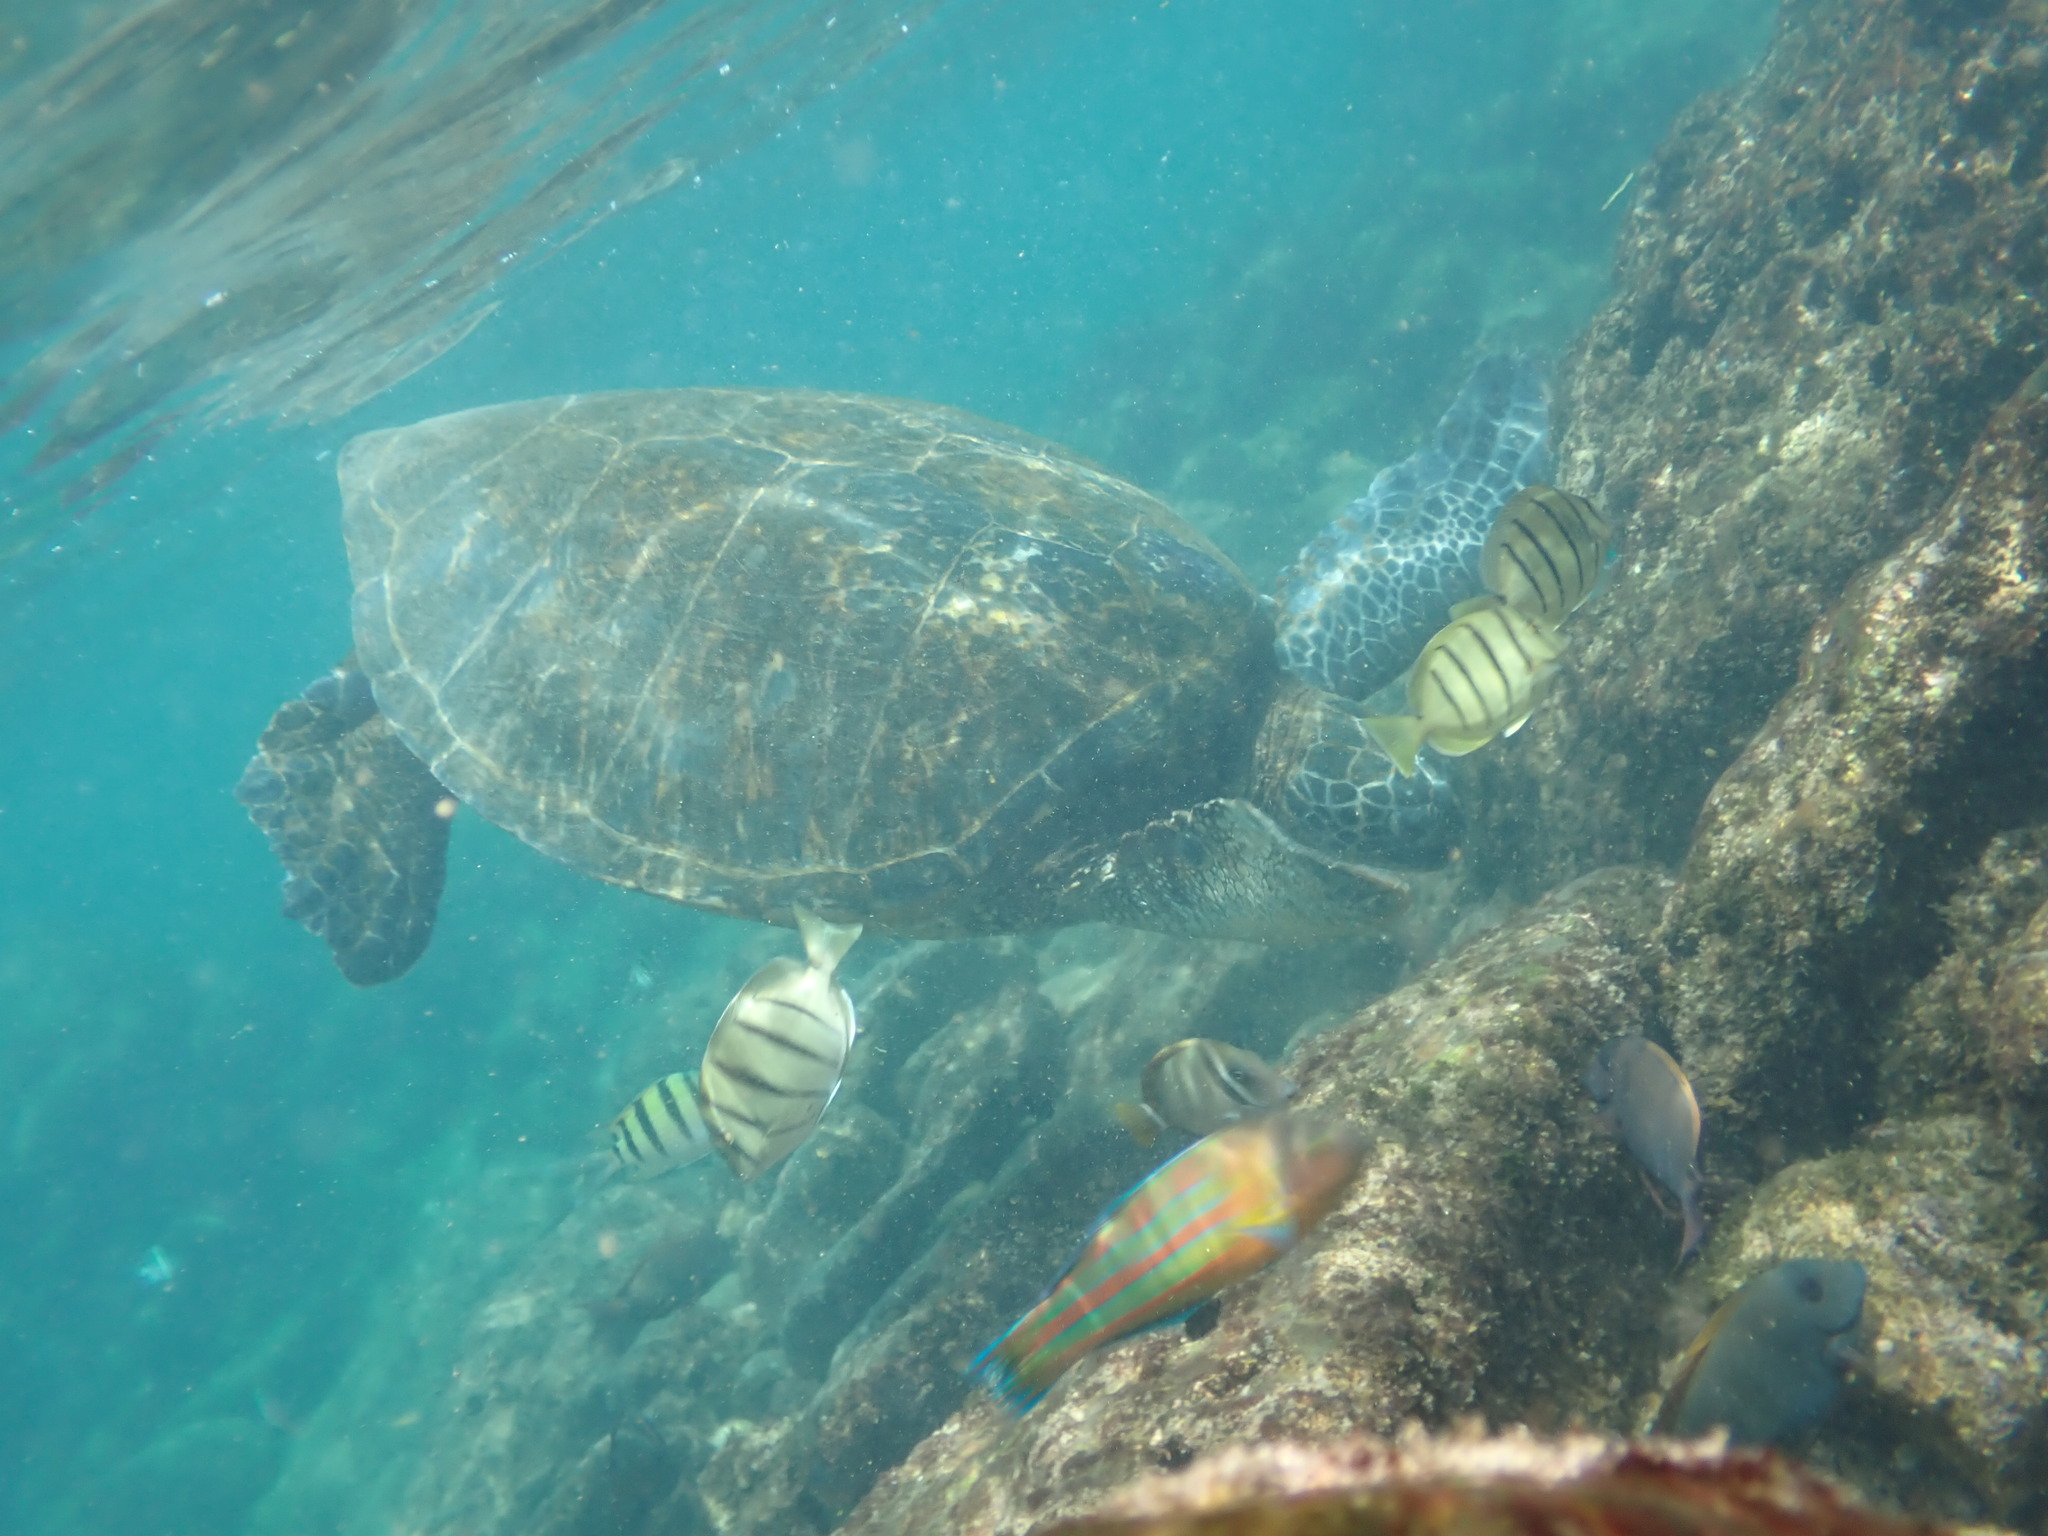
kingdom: Animalia
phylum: Chordata
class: Testudines
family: Cheloniidae
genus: Chelonia
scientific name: Chelonia mydas
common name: Green turtle
